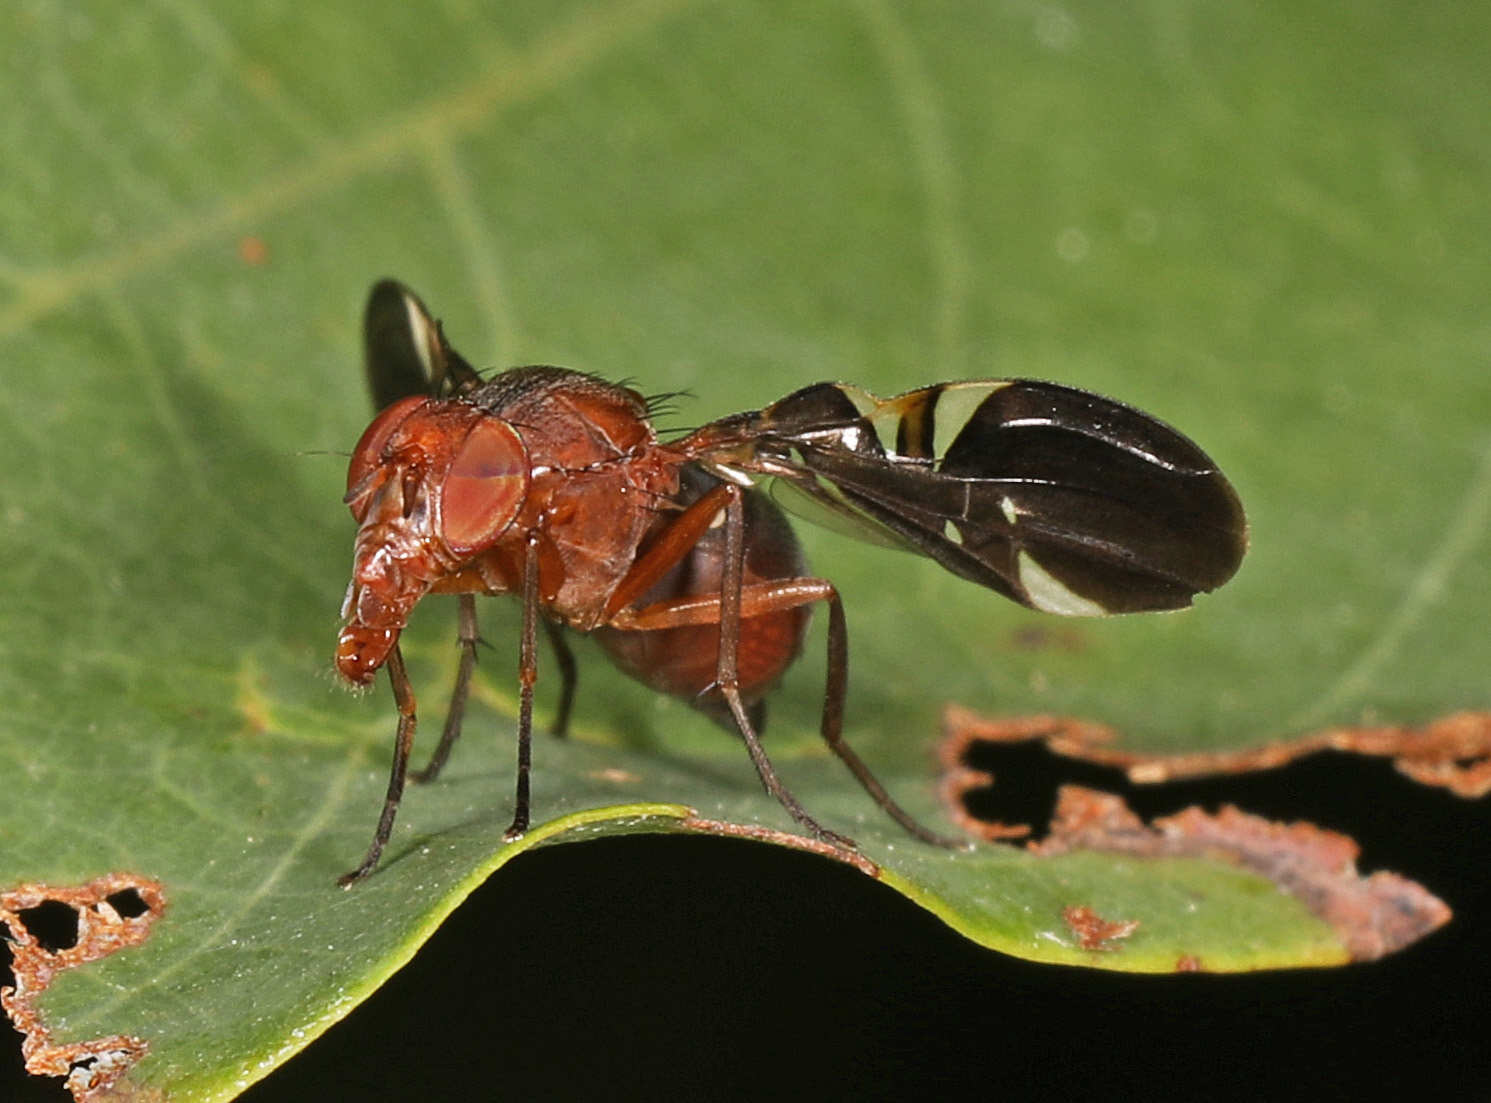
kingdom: Animalia
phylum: Arthropoda
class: Insecta
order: Diptera
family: Ulidiidae
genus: Delphinia
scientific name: Delphinia picta
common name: Common picture-winged fly
